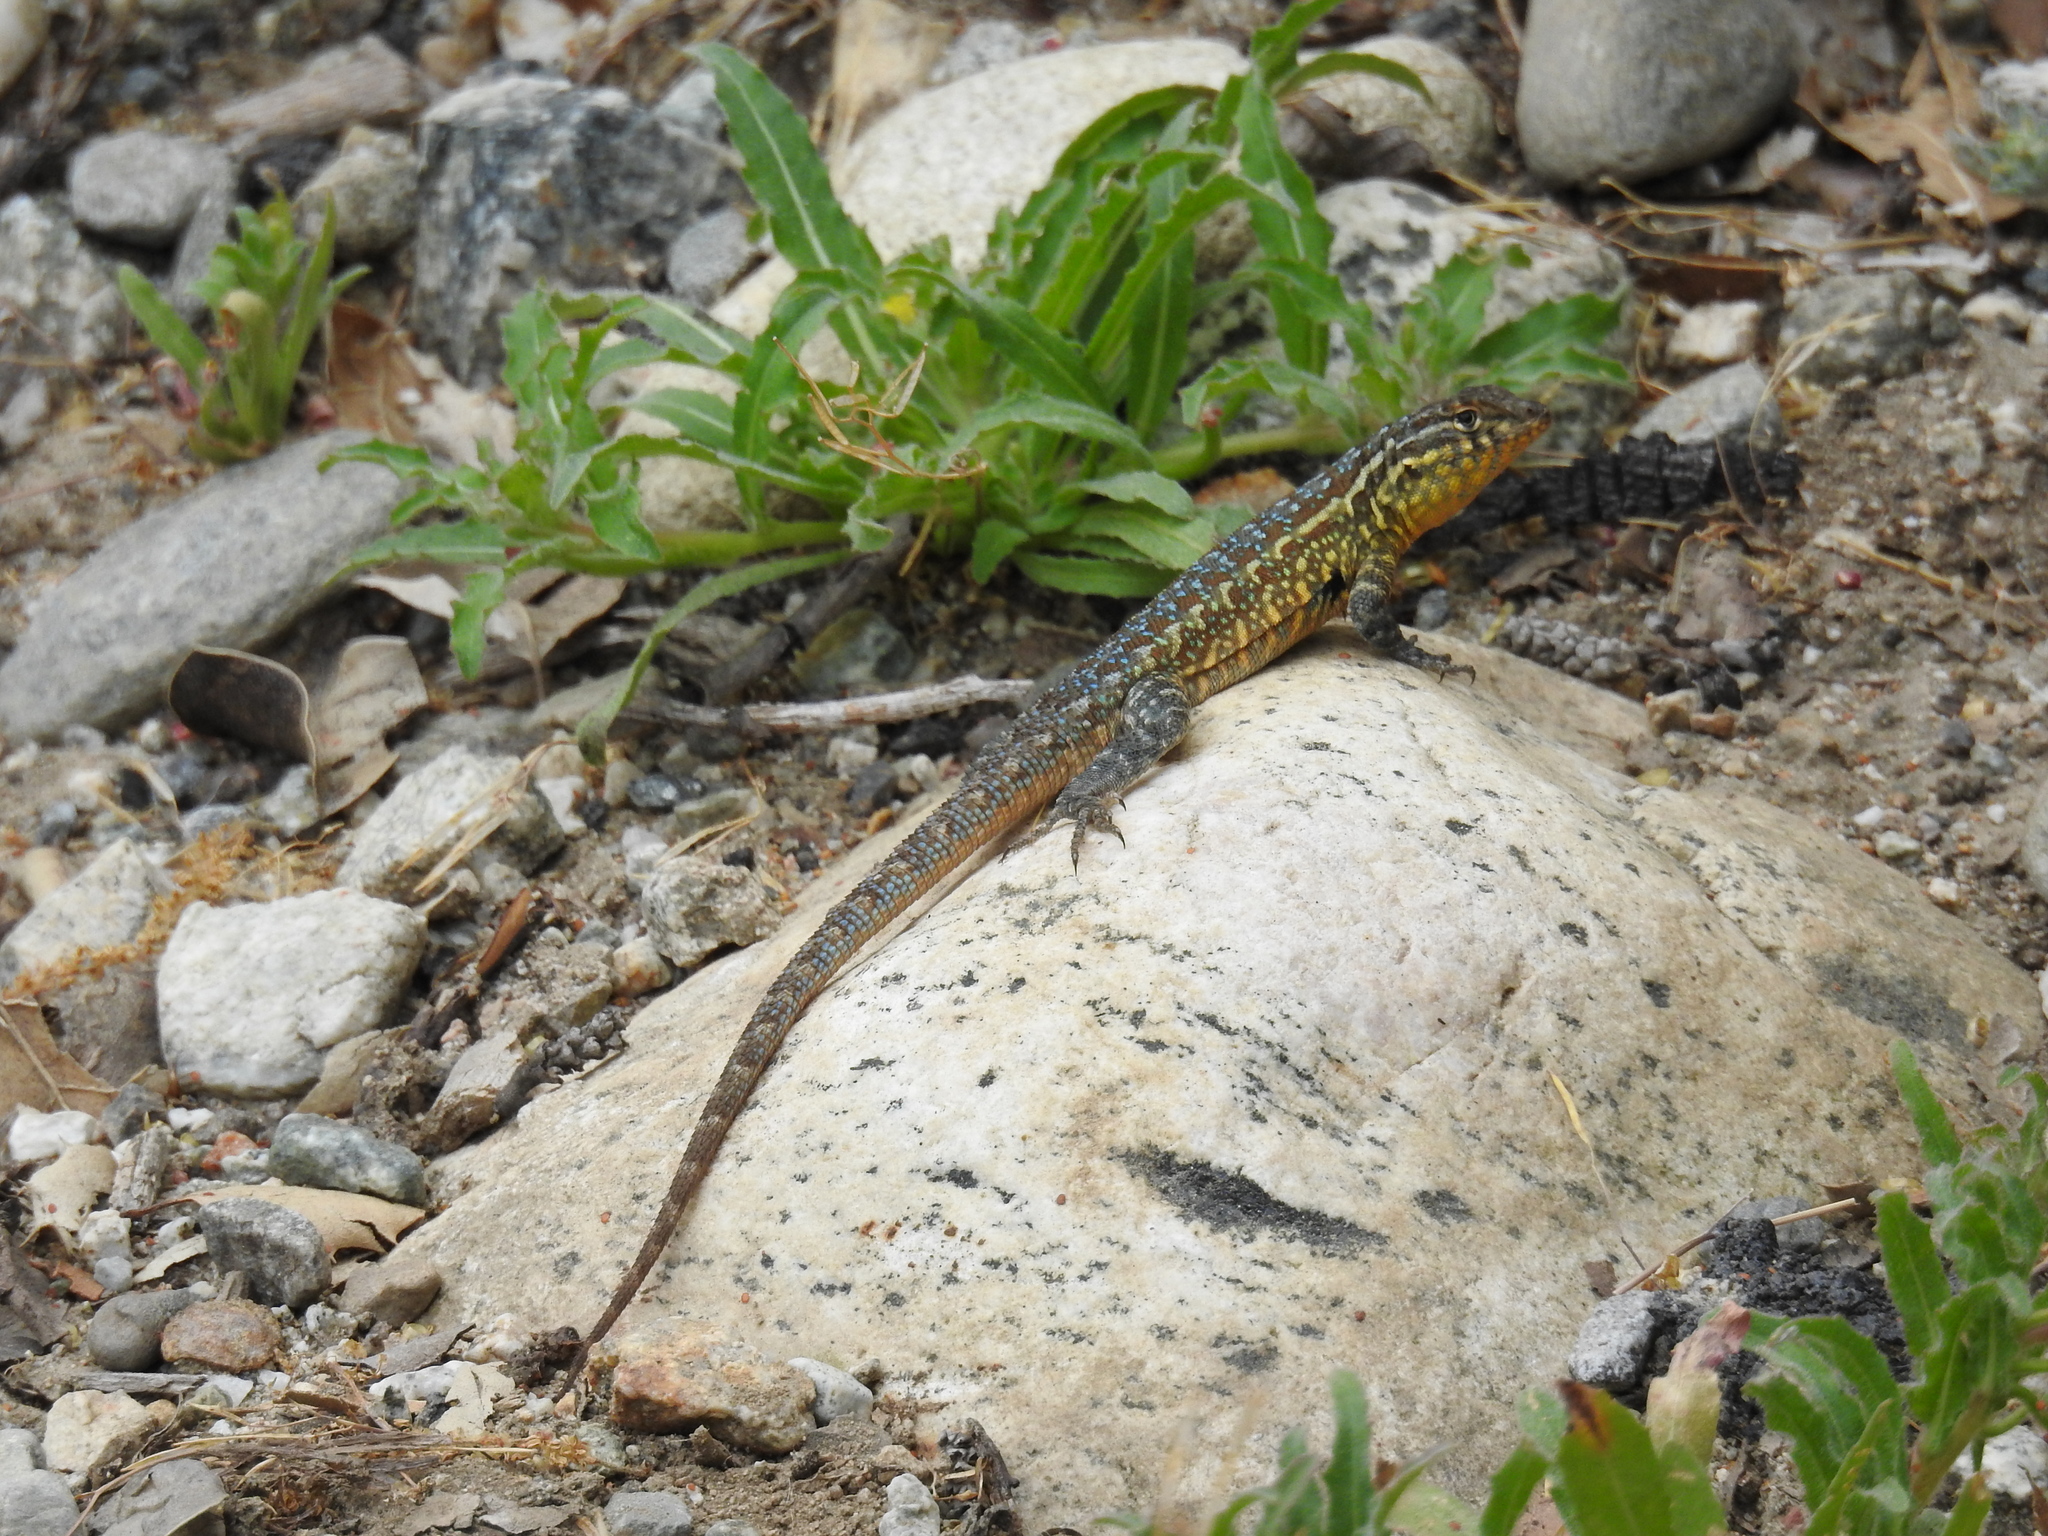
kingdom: Animalia
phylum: Chordata
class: Squamata
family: Phrynosomatidae
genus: Uta
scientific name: Uta stansburiana
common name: Side-blotched lizard
